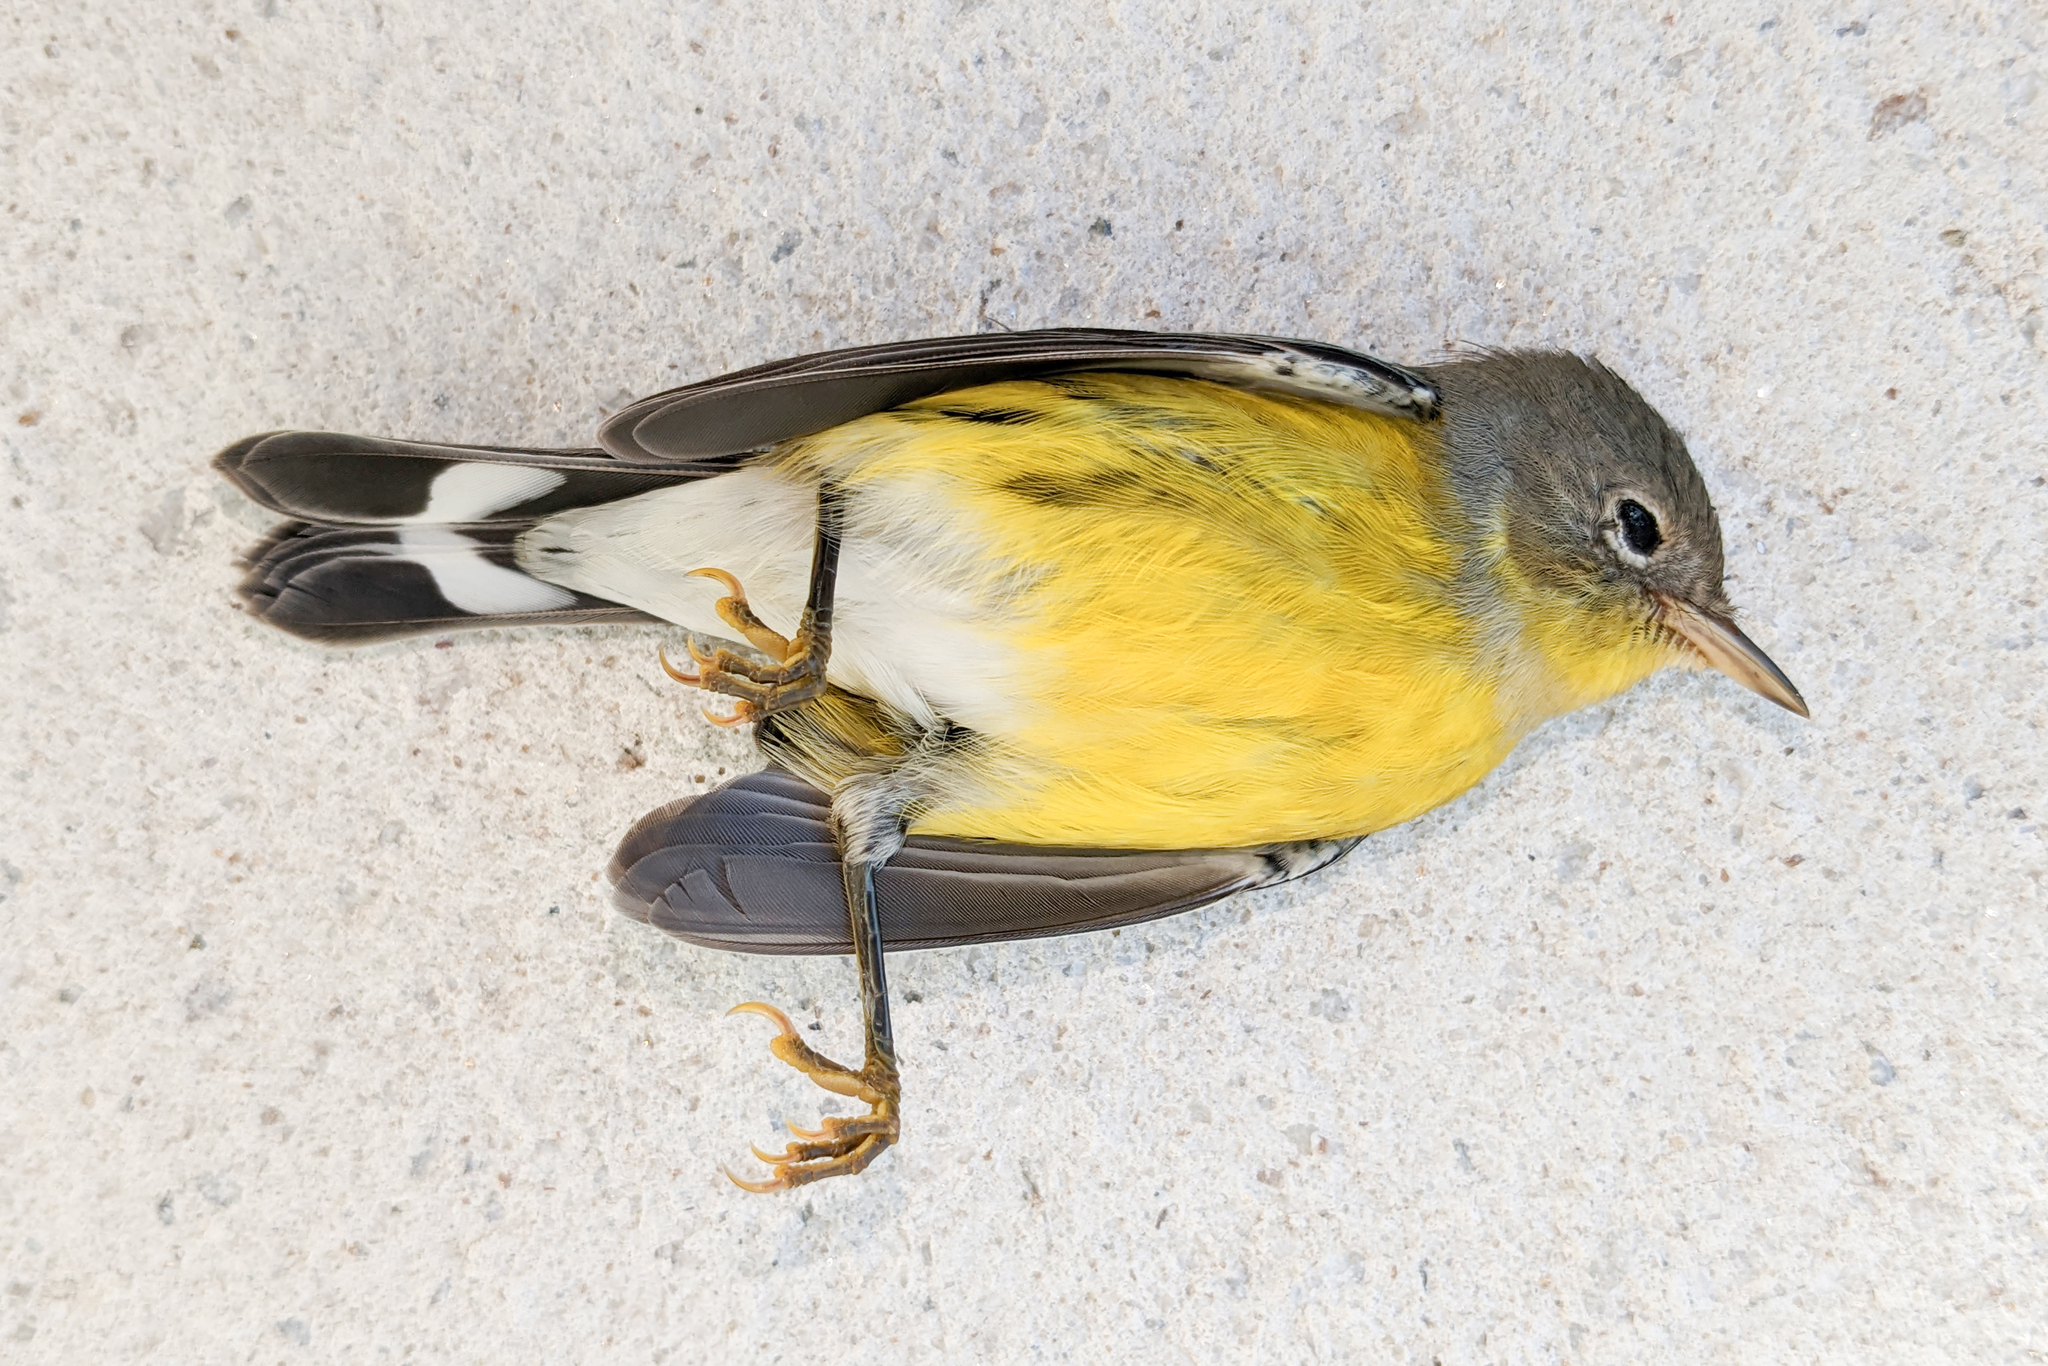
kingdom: Animalia
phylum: Chordata
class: Aves
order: Passeriformes
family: Parulidae
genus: Setophaga
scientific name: Setophaga magnolia
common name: Magnolia warbler
